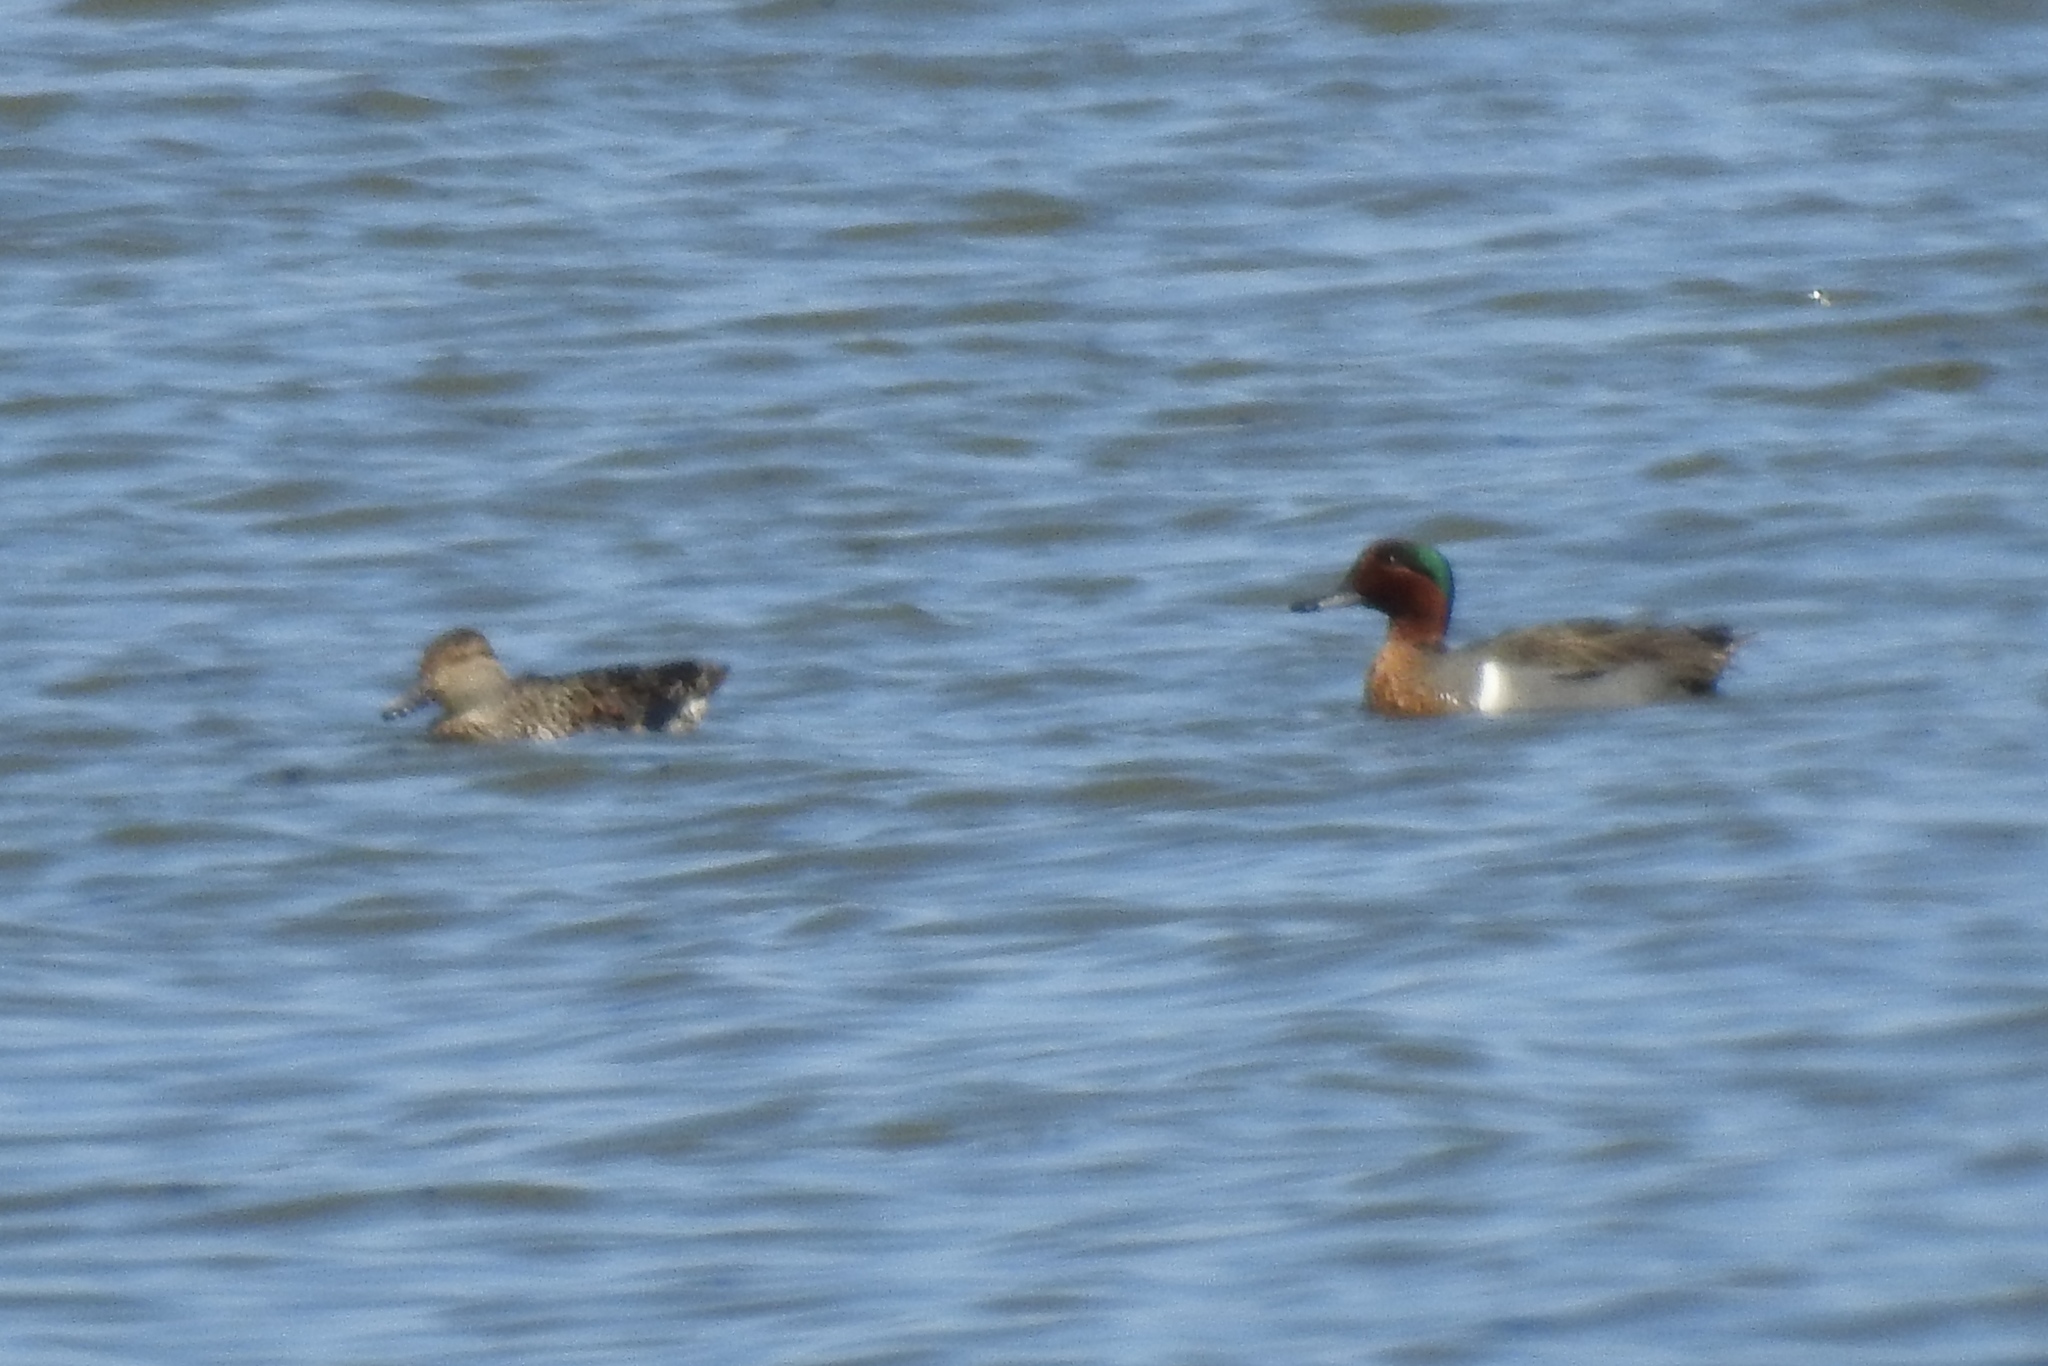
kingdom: Animalia
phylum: Chordata
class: Aves
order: Anseriformes
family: Anatidae
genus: Anas
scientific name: Anas crecca
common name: Eurasian teal
